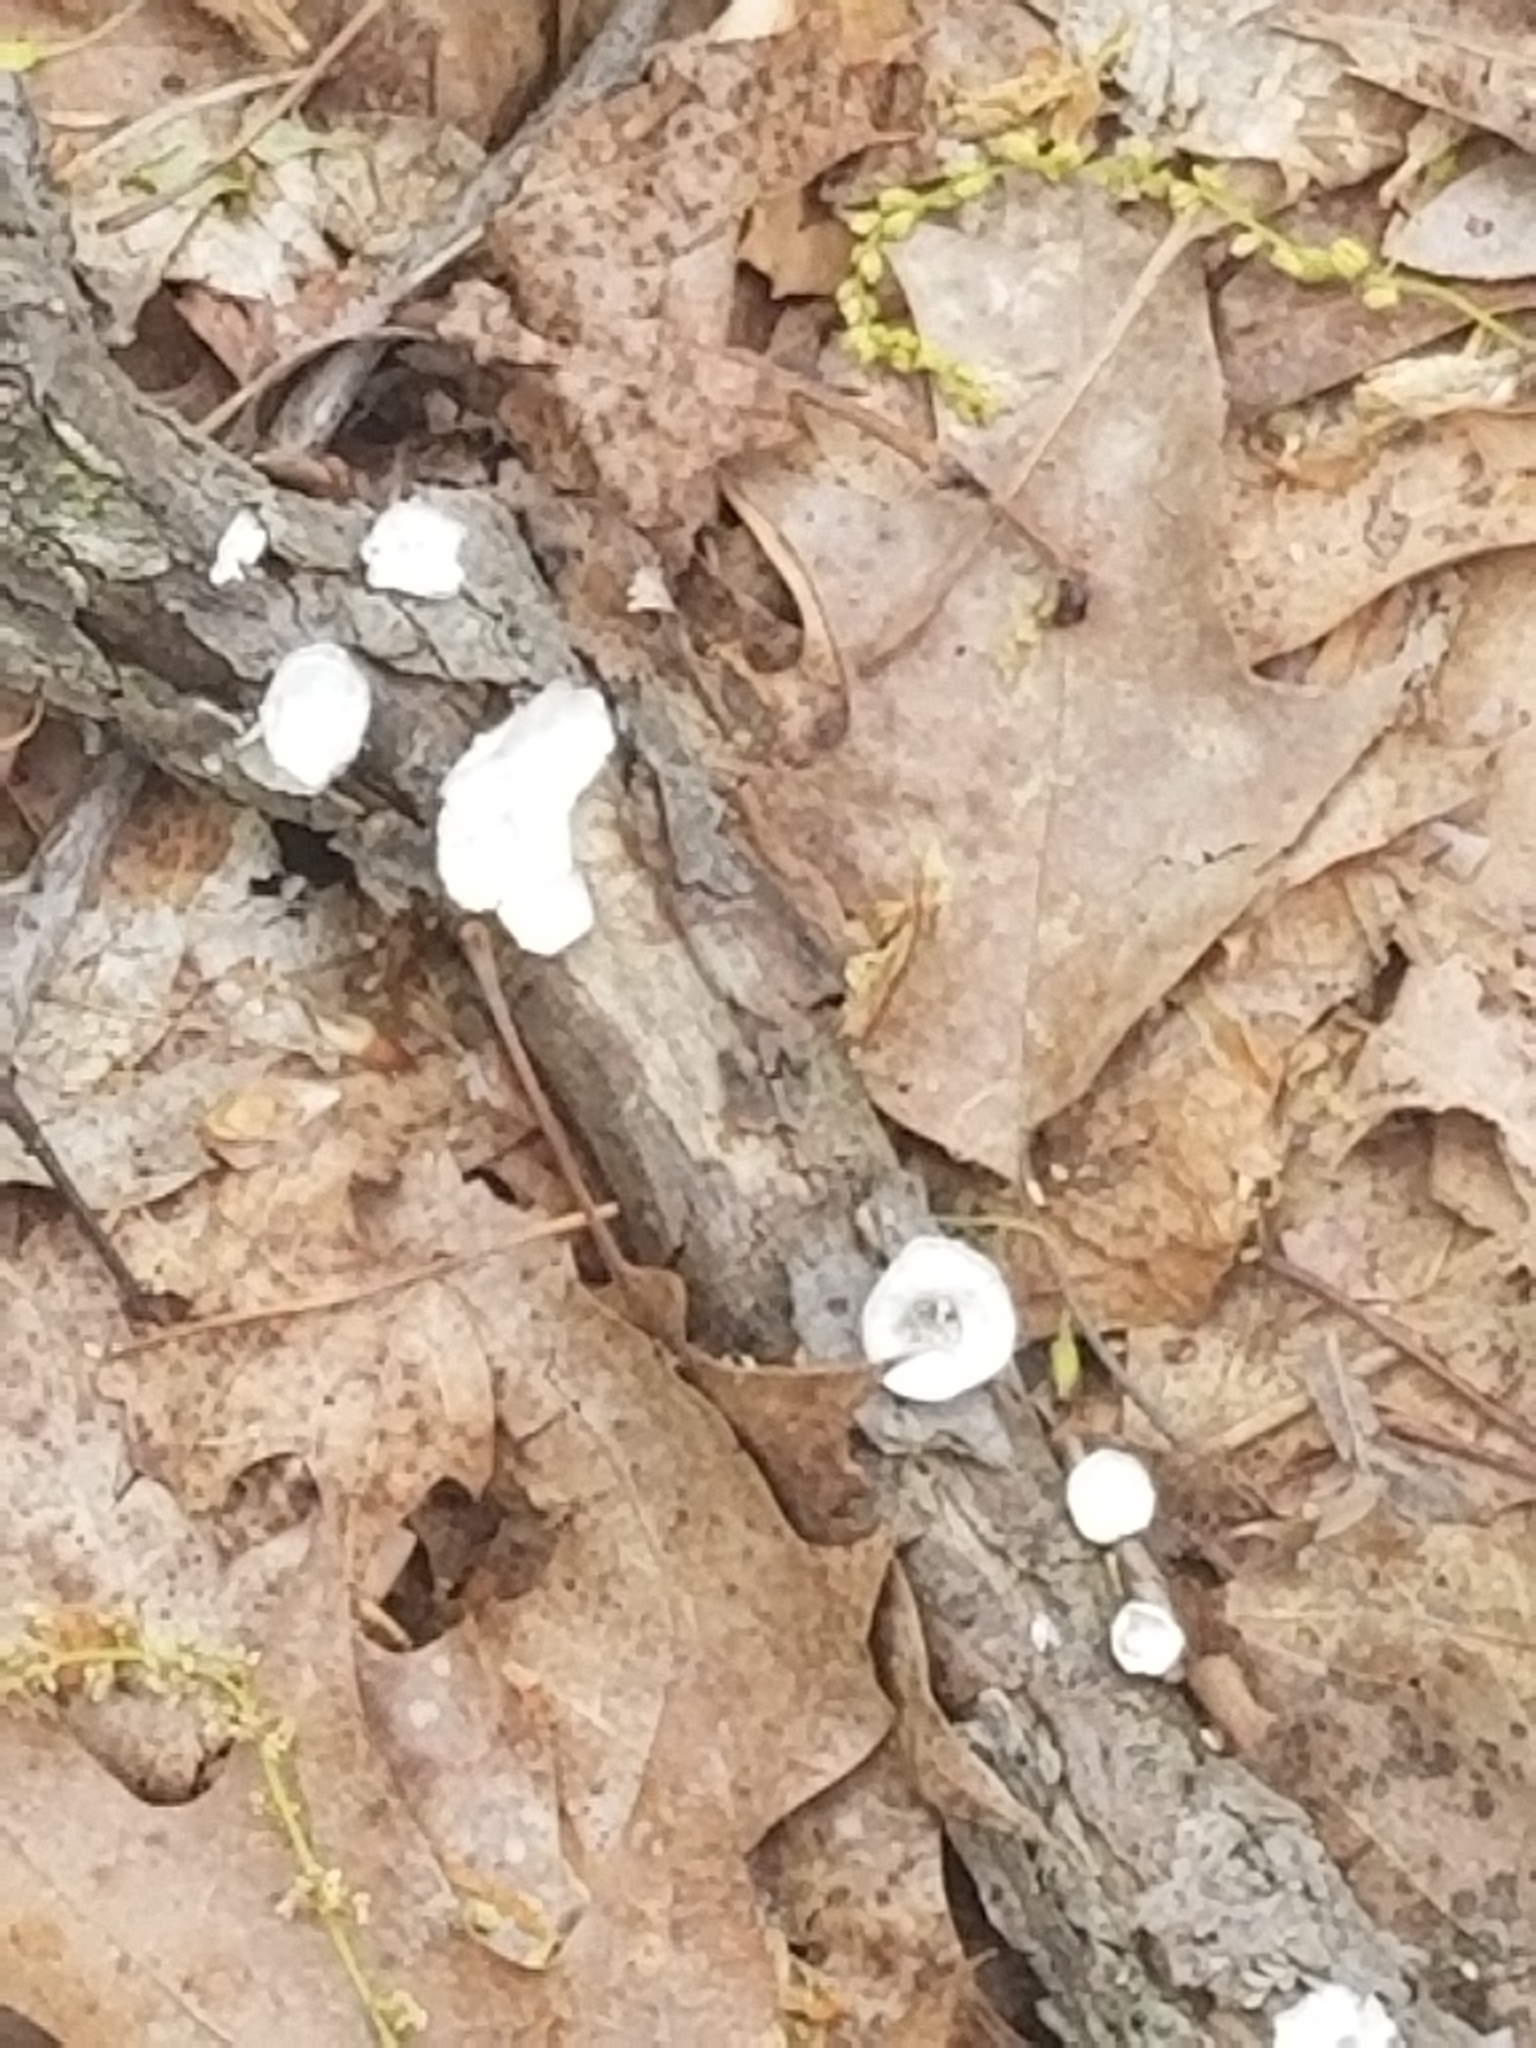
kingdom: Fungi
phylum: Basidiomycota
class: Agaricomycetes
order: Polyporales
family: Polyporaceae
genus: Poronidulus
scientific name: Poronidulus conchifer
